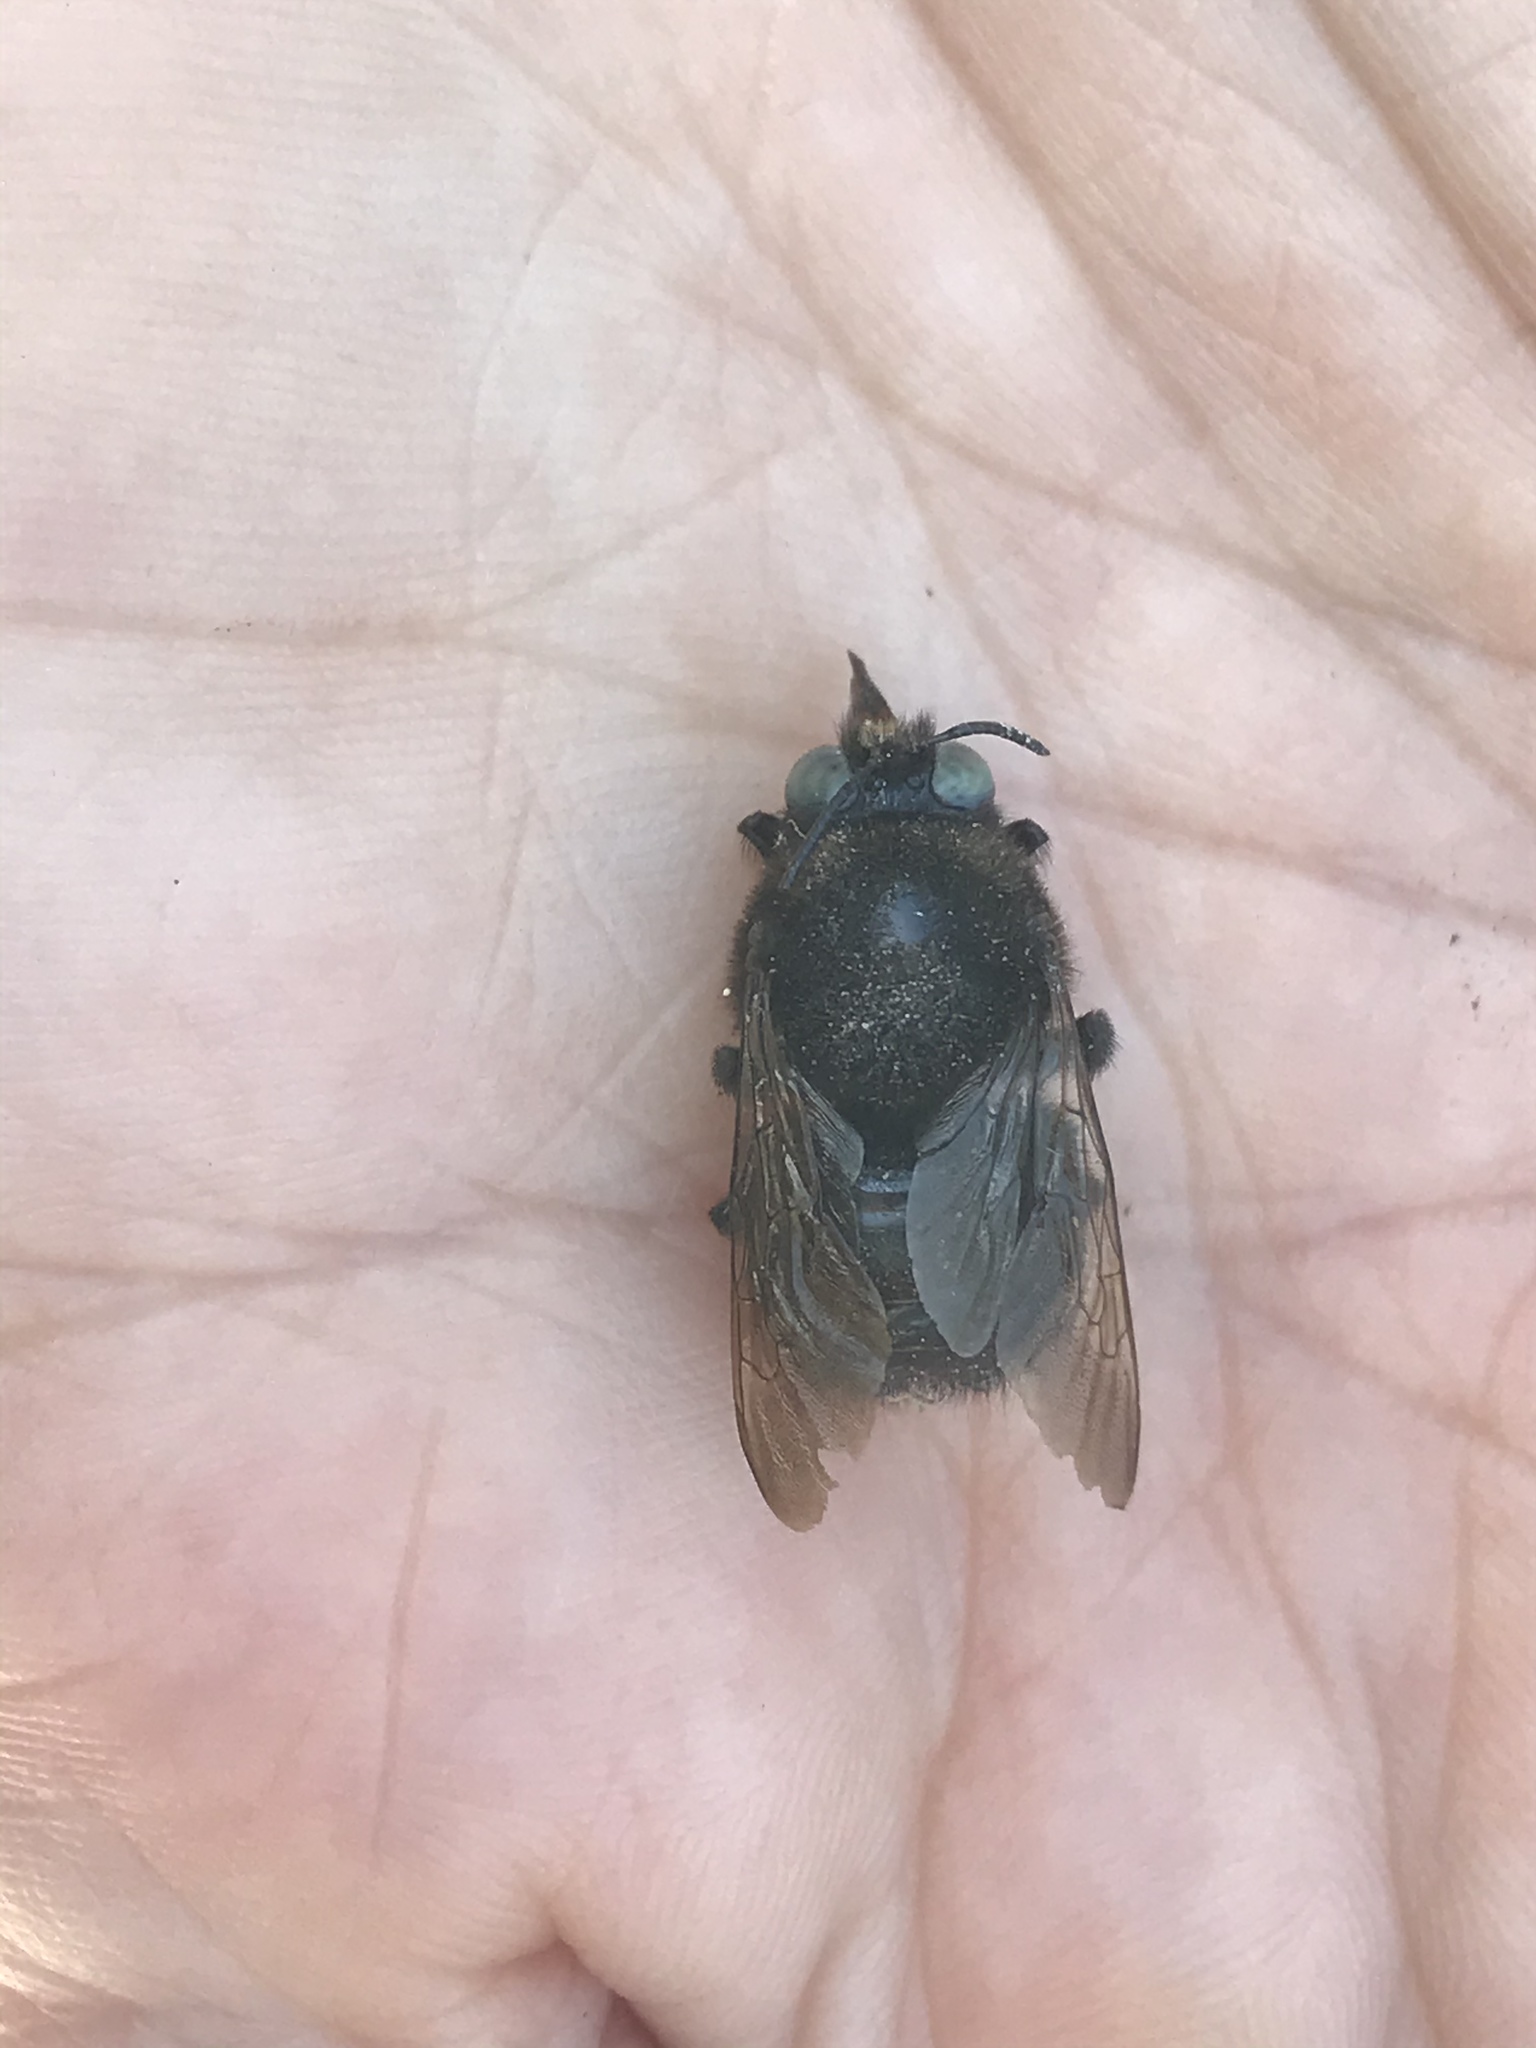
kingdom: Animalia
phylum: Arthropoda
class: Insecta
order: Hymenoptera
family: Apidae
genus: Xylocopa
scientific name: Xylocopa tabaniformis
